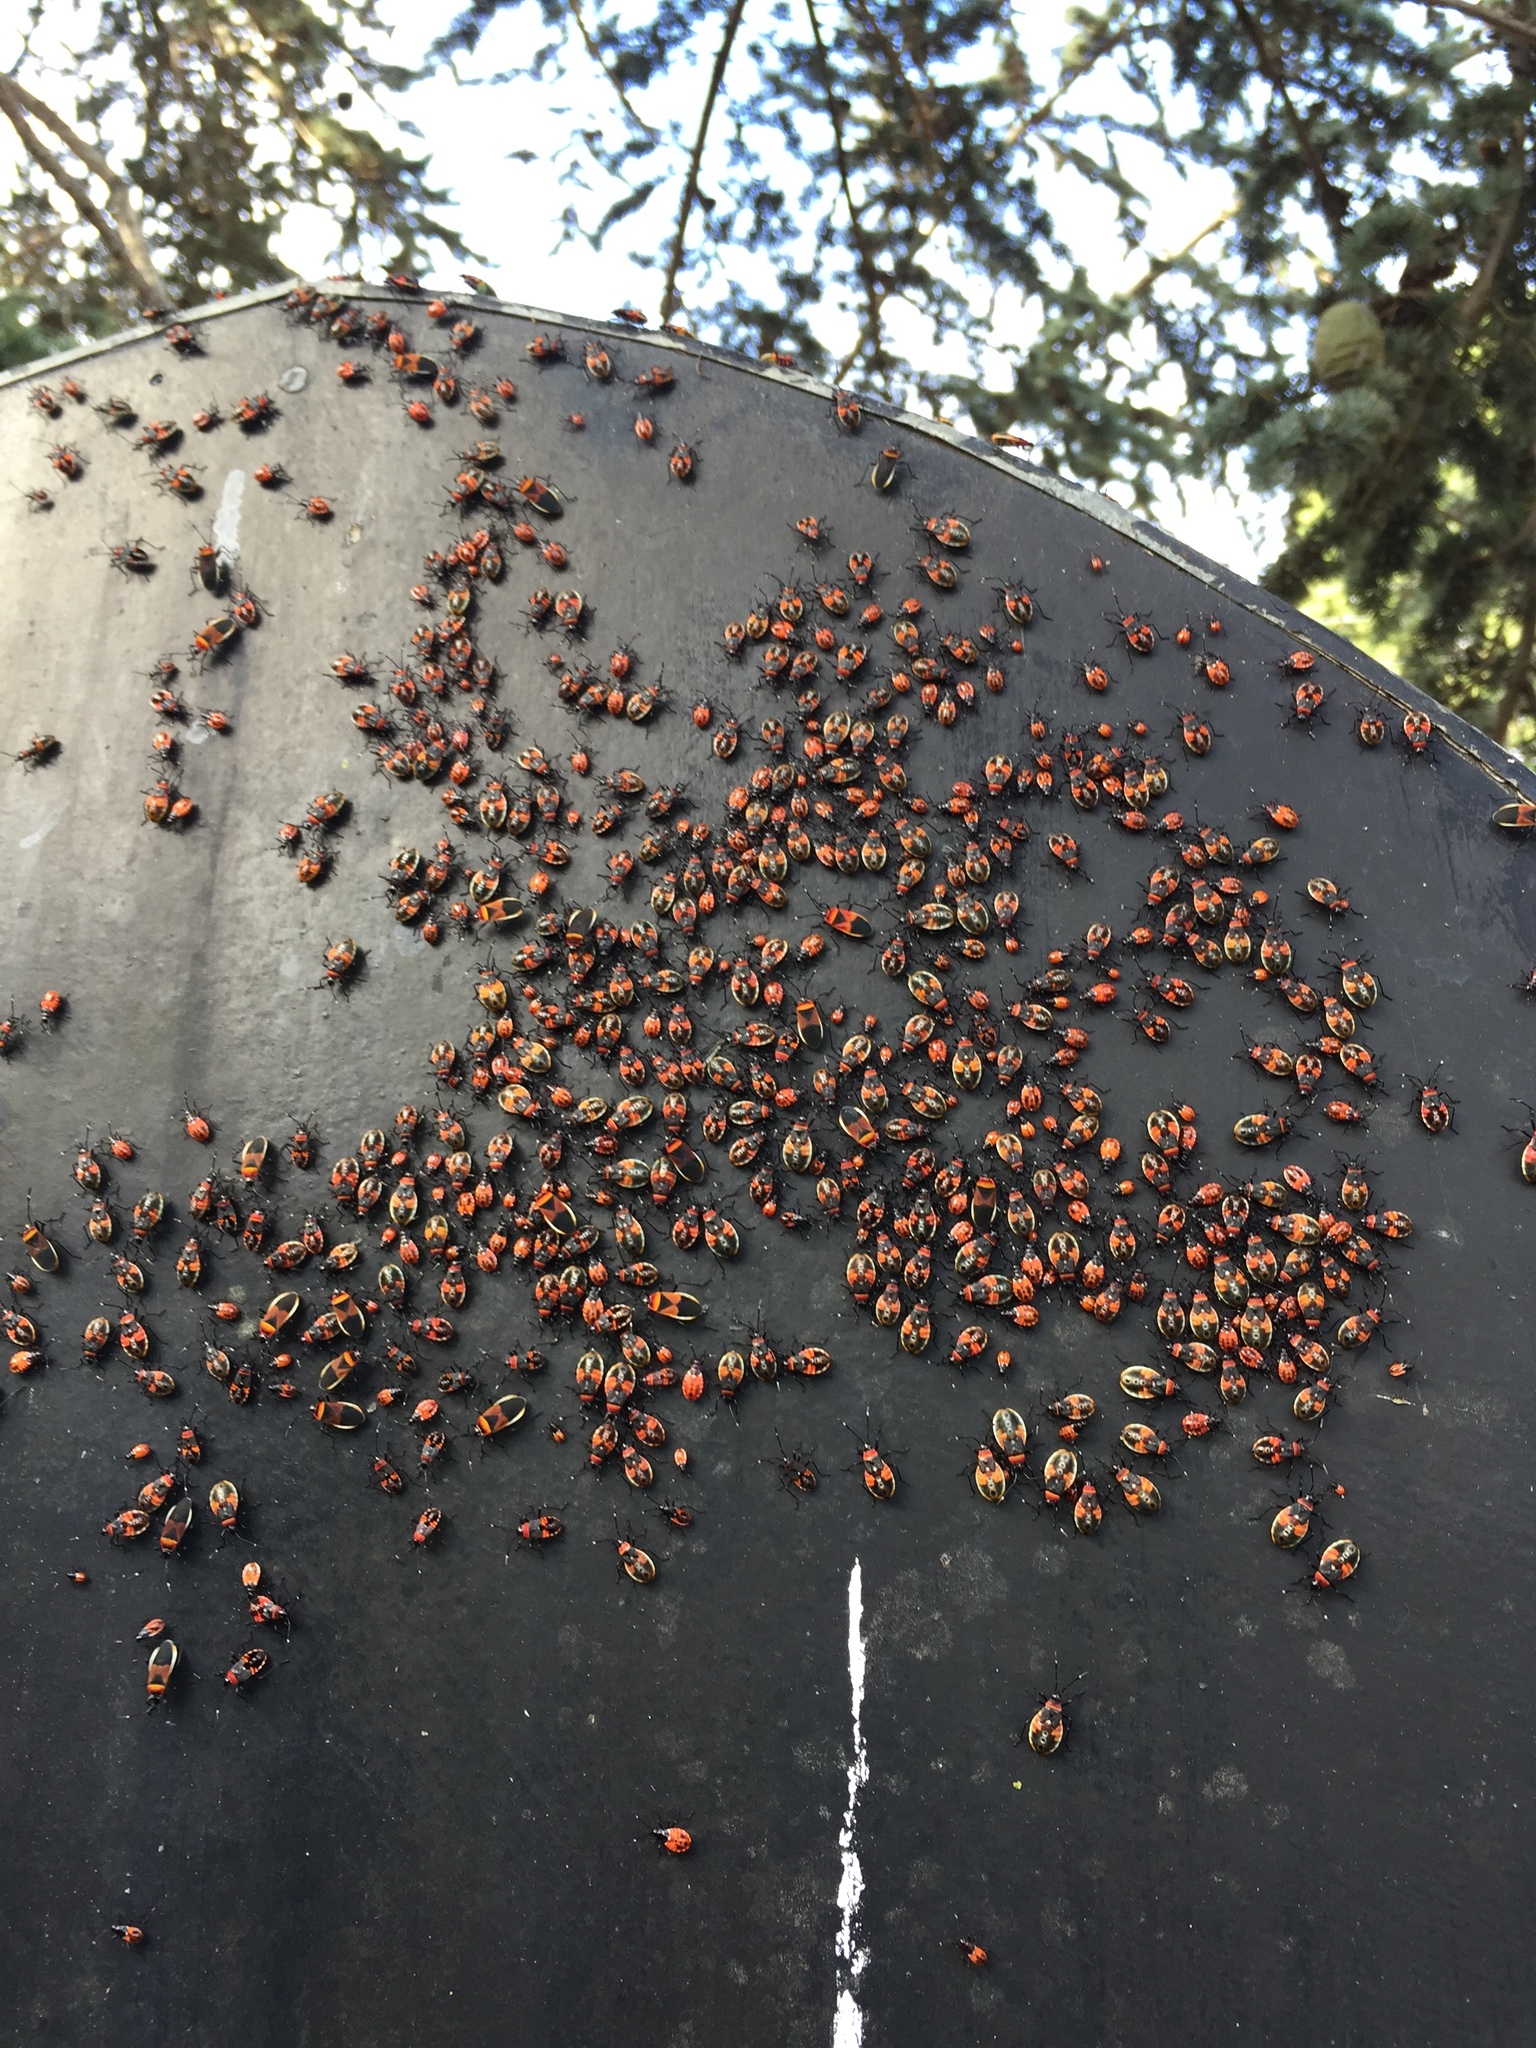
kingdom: Animalia
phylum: Arthropoda
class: Insecta
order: Hemiptera
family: Pyrrhocoridae
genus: Dindymus
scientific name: Dindymus
